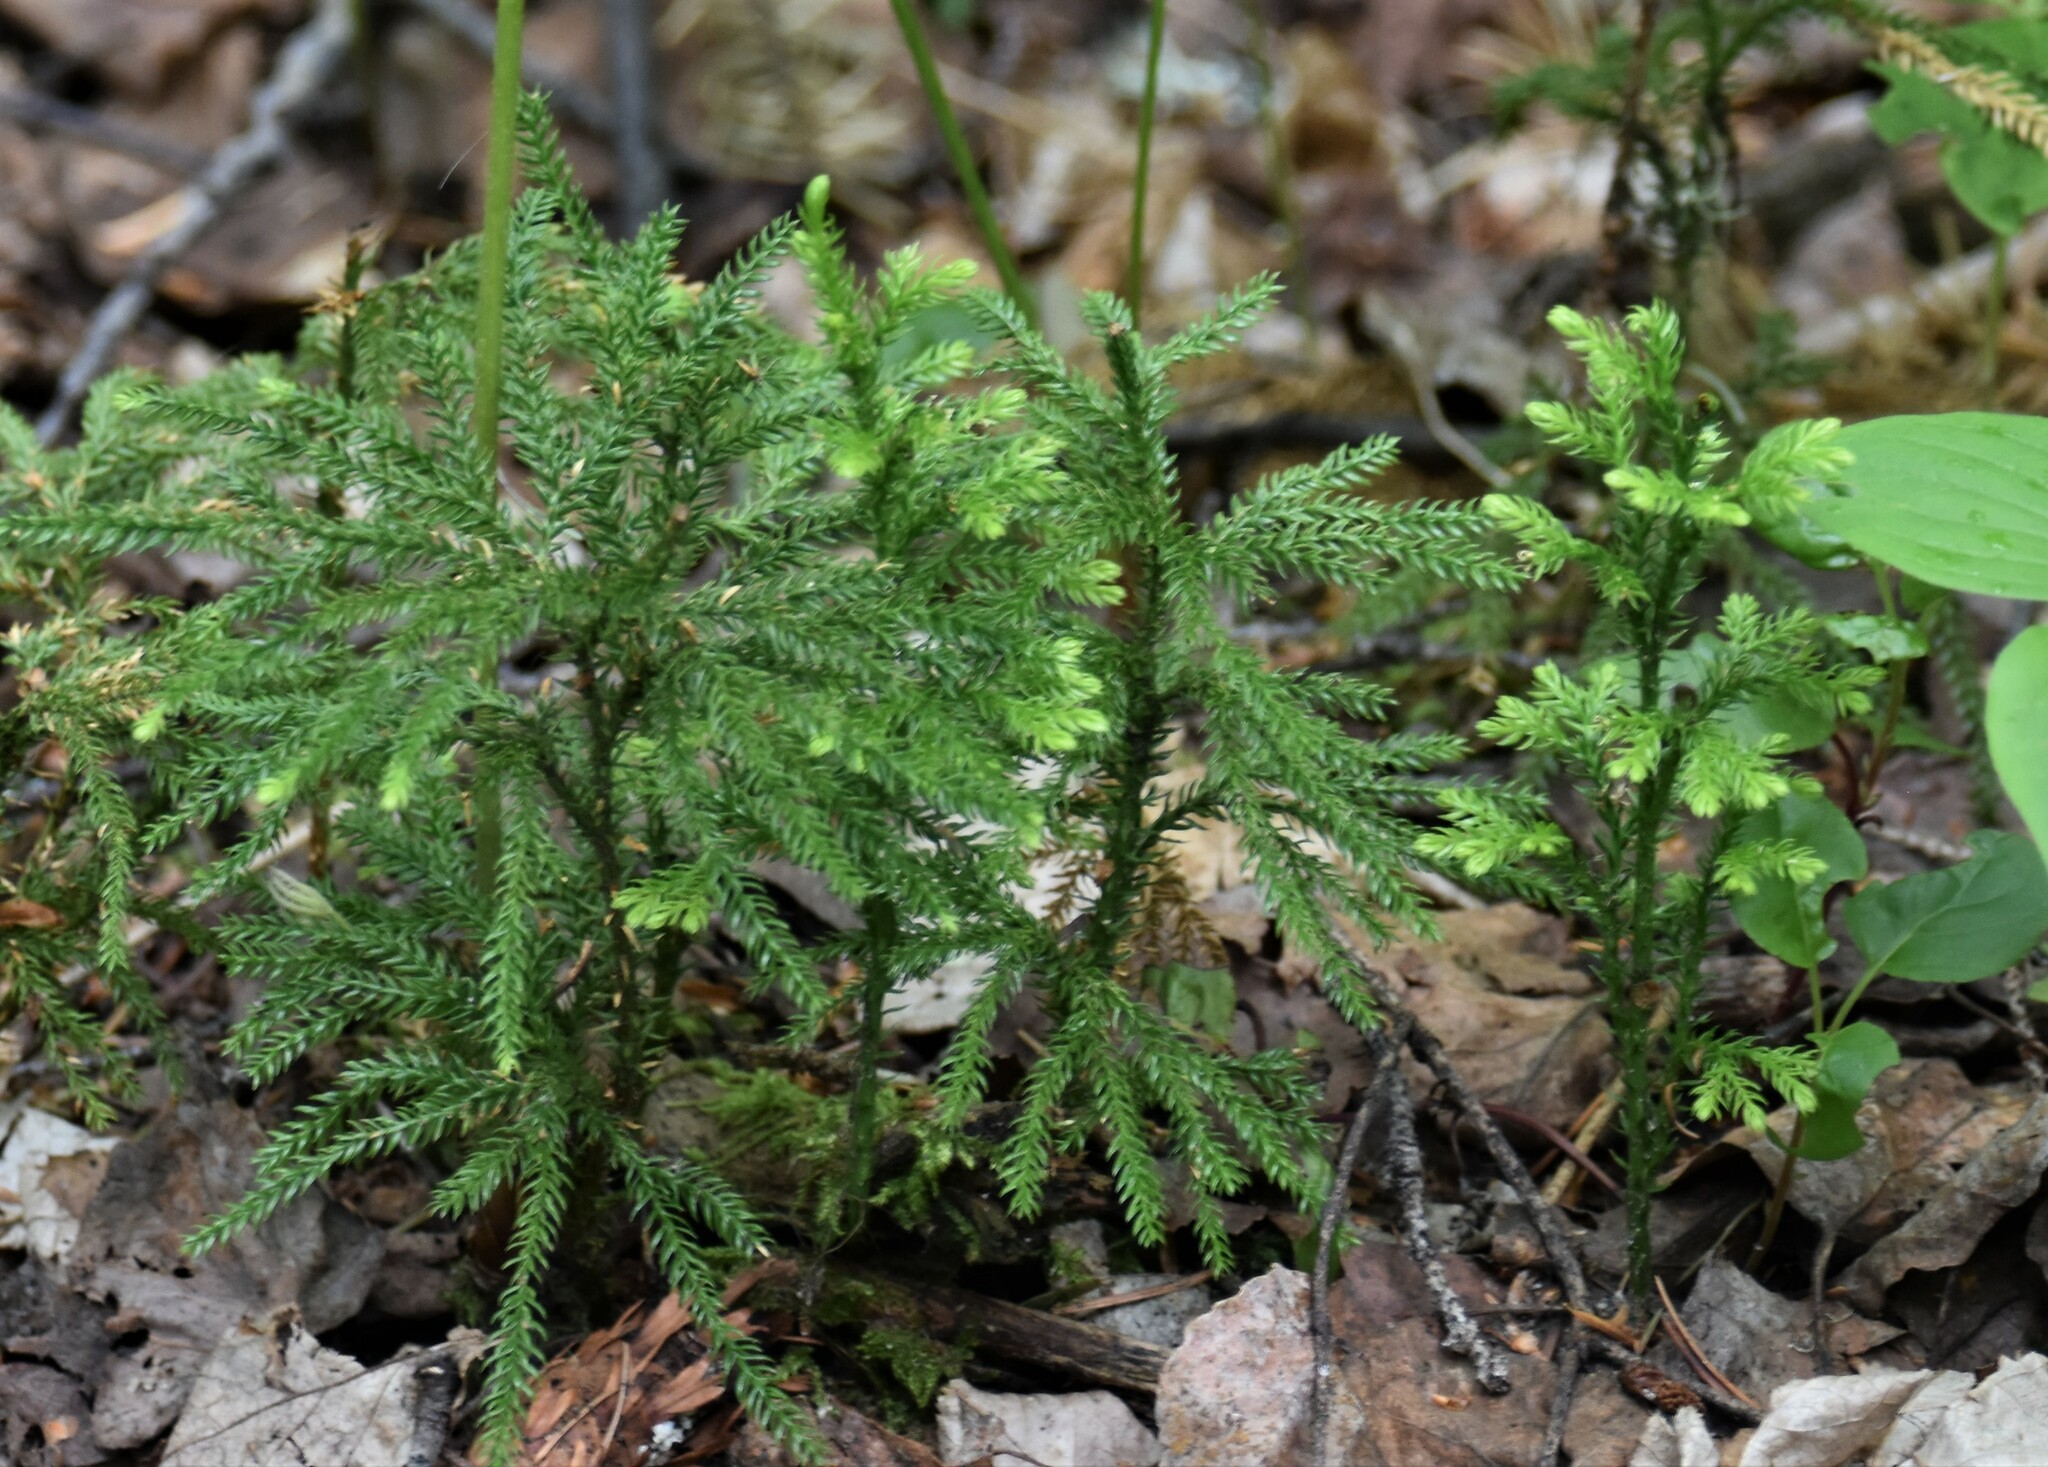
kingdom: Plantae
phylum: Tracheophyta
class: Lycopodiopsida
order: Lycopodiales
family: Lycopodiaceae
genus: Dendrolycopodium
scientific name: Dendrolycopodium dendroideum
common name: Northern tree-clubmoss
